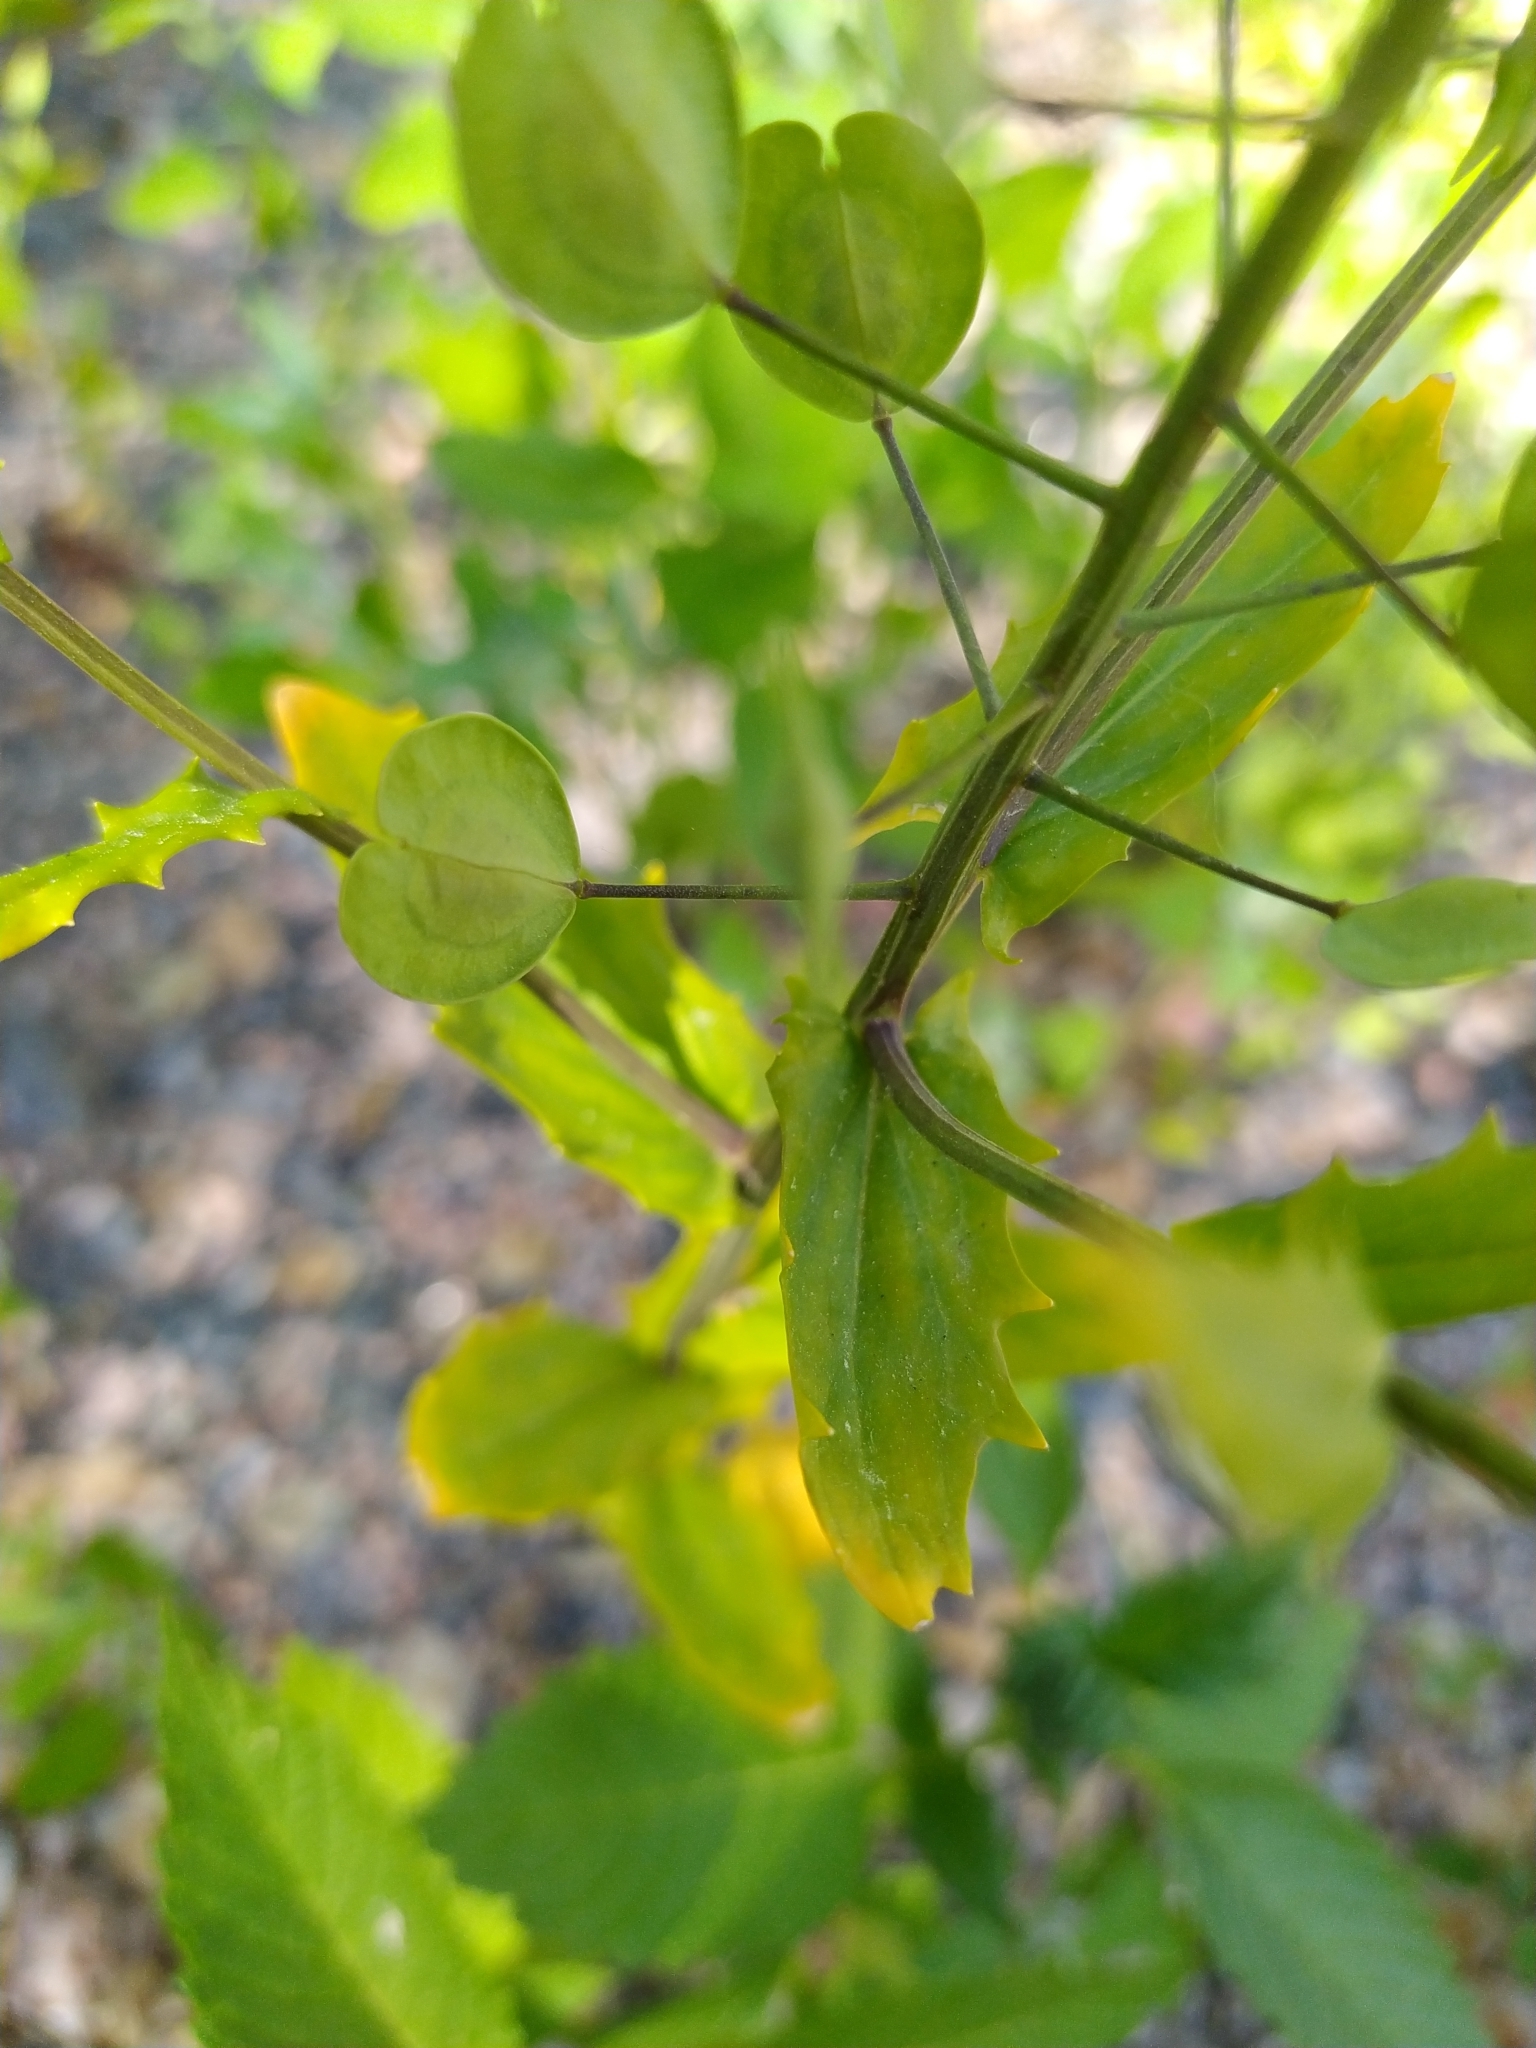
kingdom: Plantae
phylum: Tracheophyta
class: Magnoliopsida
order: Brassicales
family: Brassicaceae
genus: Thlaspi
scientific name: Thlaspi arvense
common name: Field pennycress
